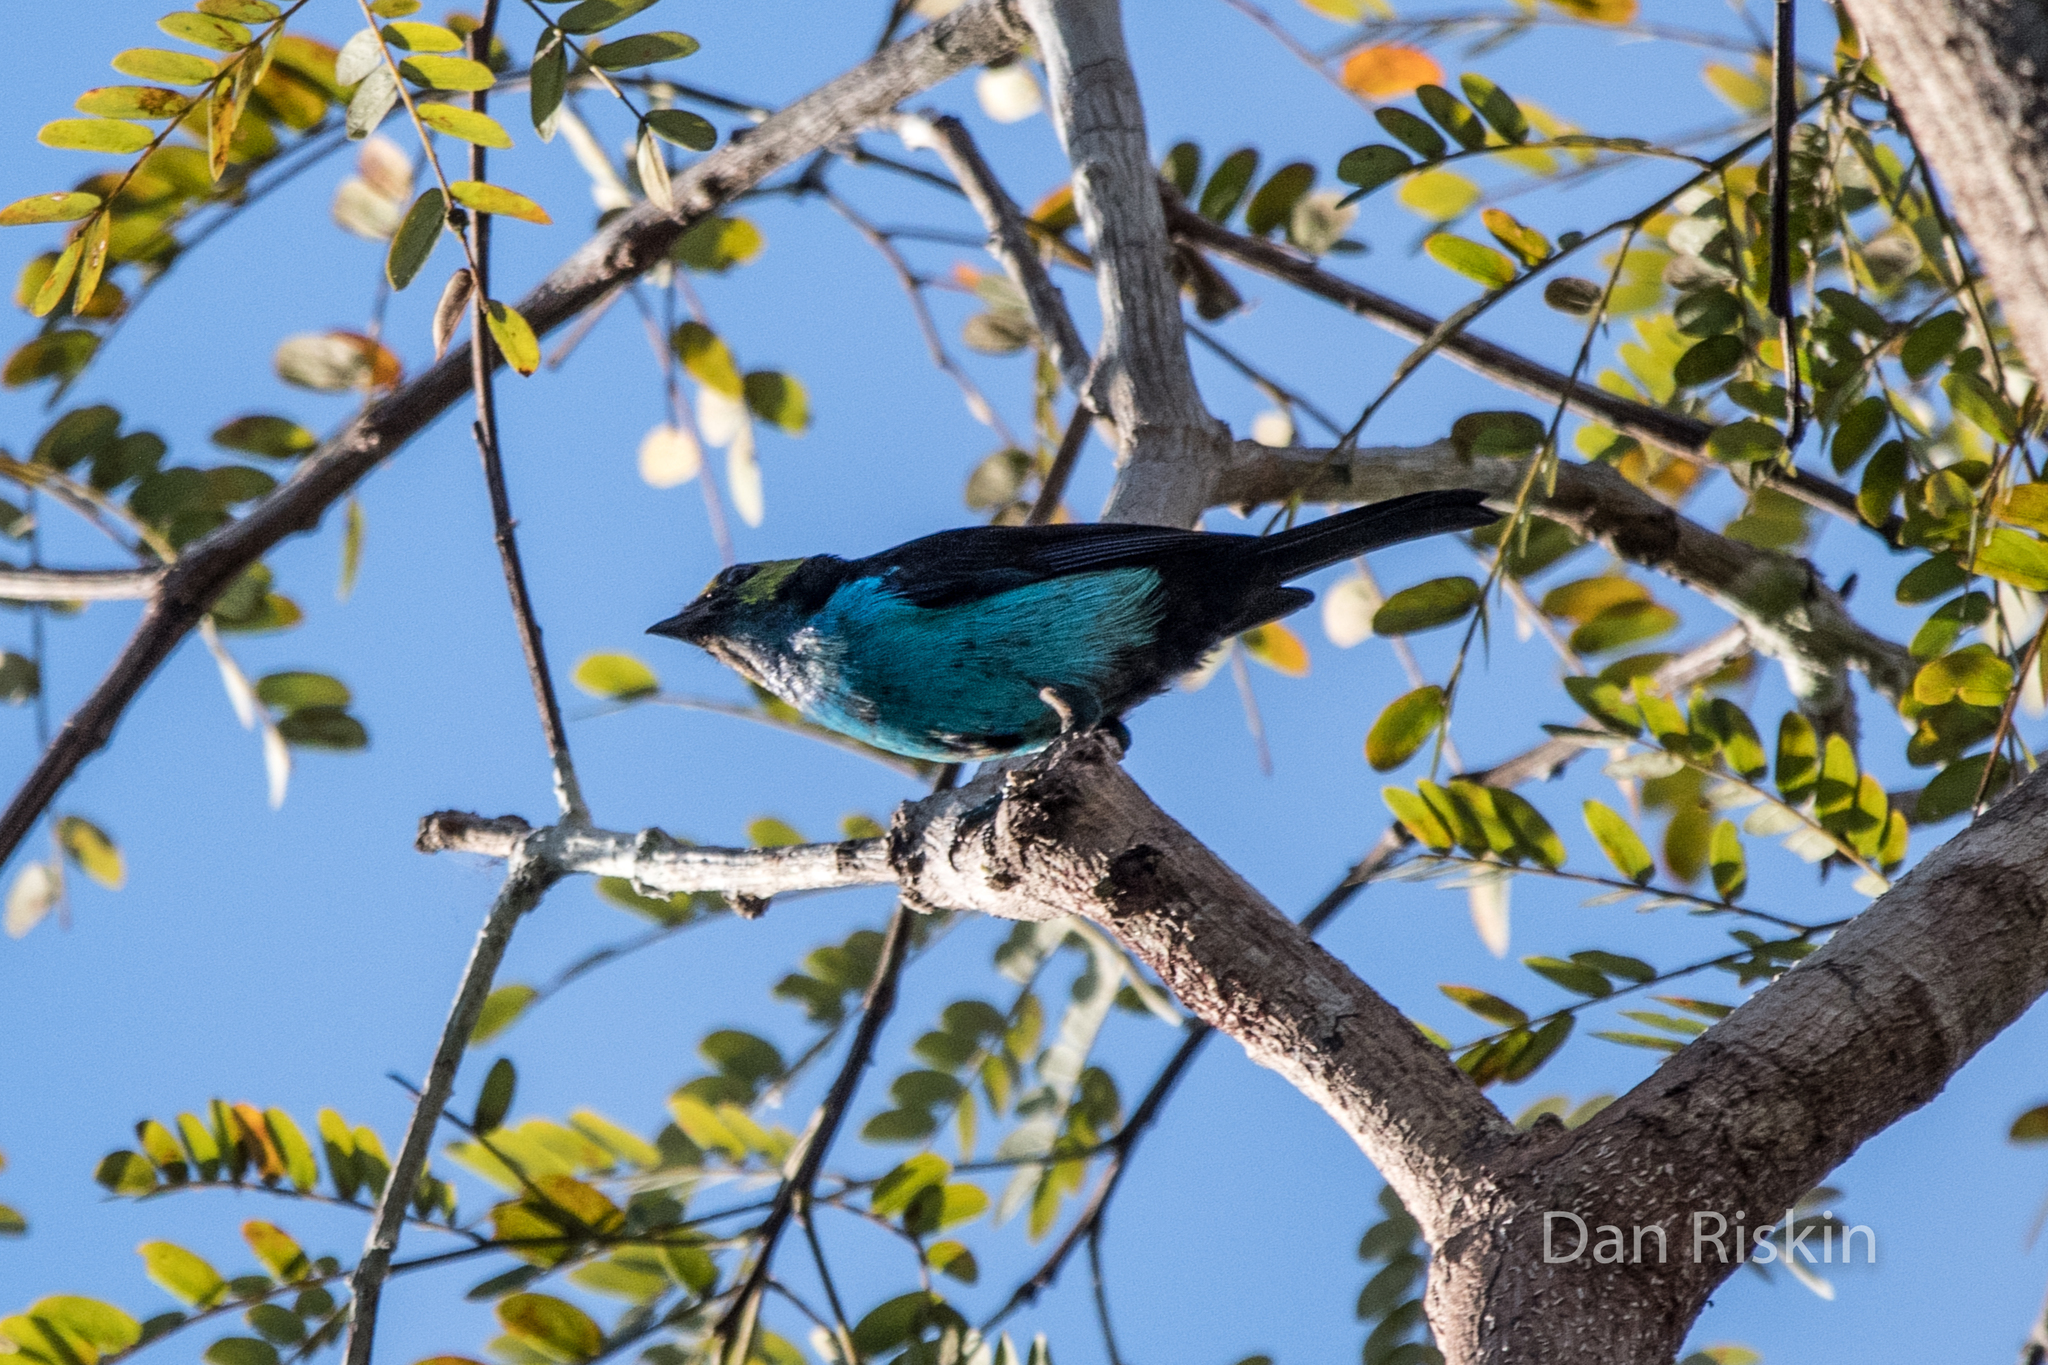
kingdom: Animalia
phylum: Chordata
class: Aves
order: Passeriformes
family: Thraupidae
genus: Tangara
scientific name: Tangara chilensis
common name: Paradise tanager
